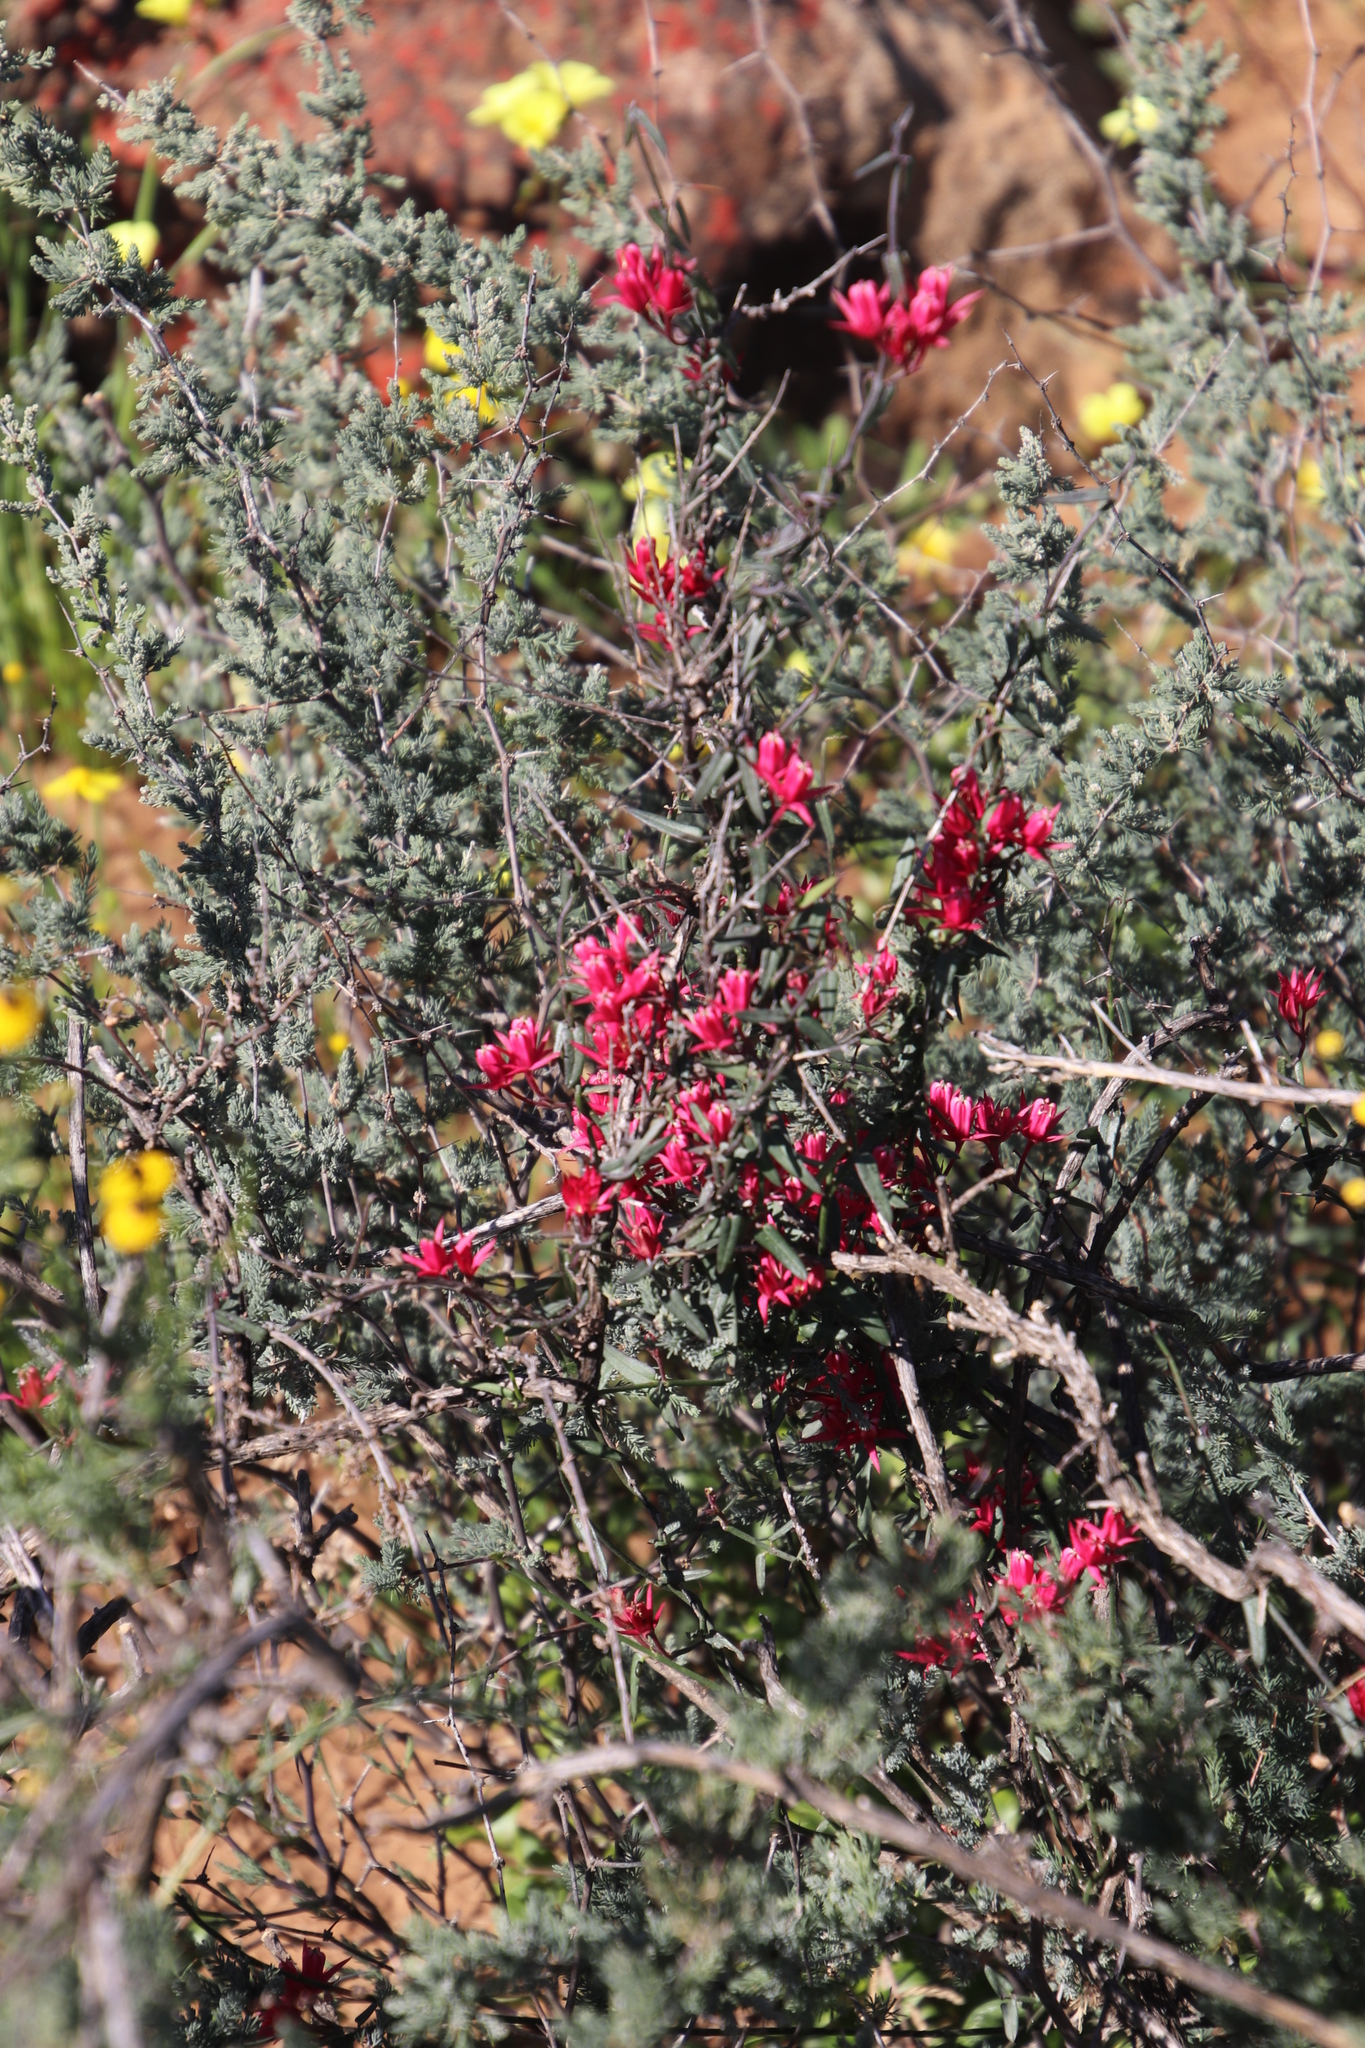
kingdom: Plantae
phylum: Tracheophyta
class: Magnoliopsida
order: Gentianales
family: Apocynaceae
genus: Microloma
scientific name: Microloma sagittatum
